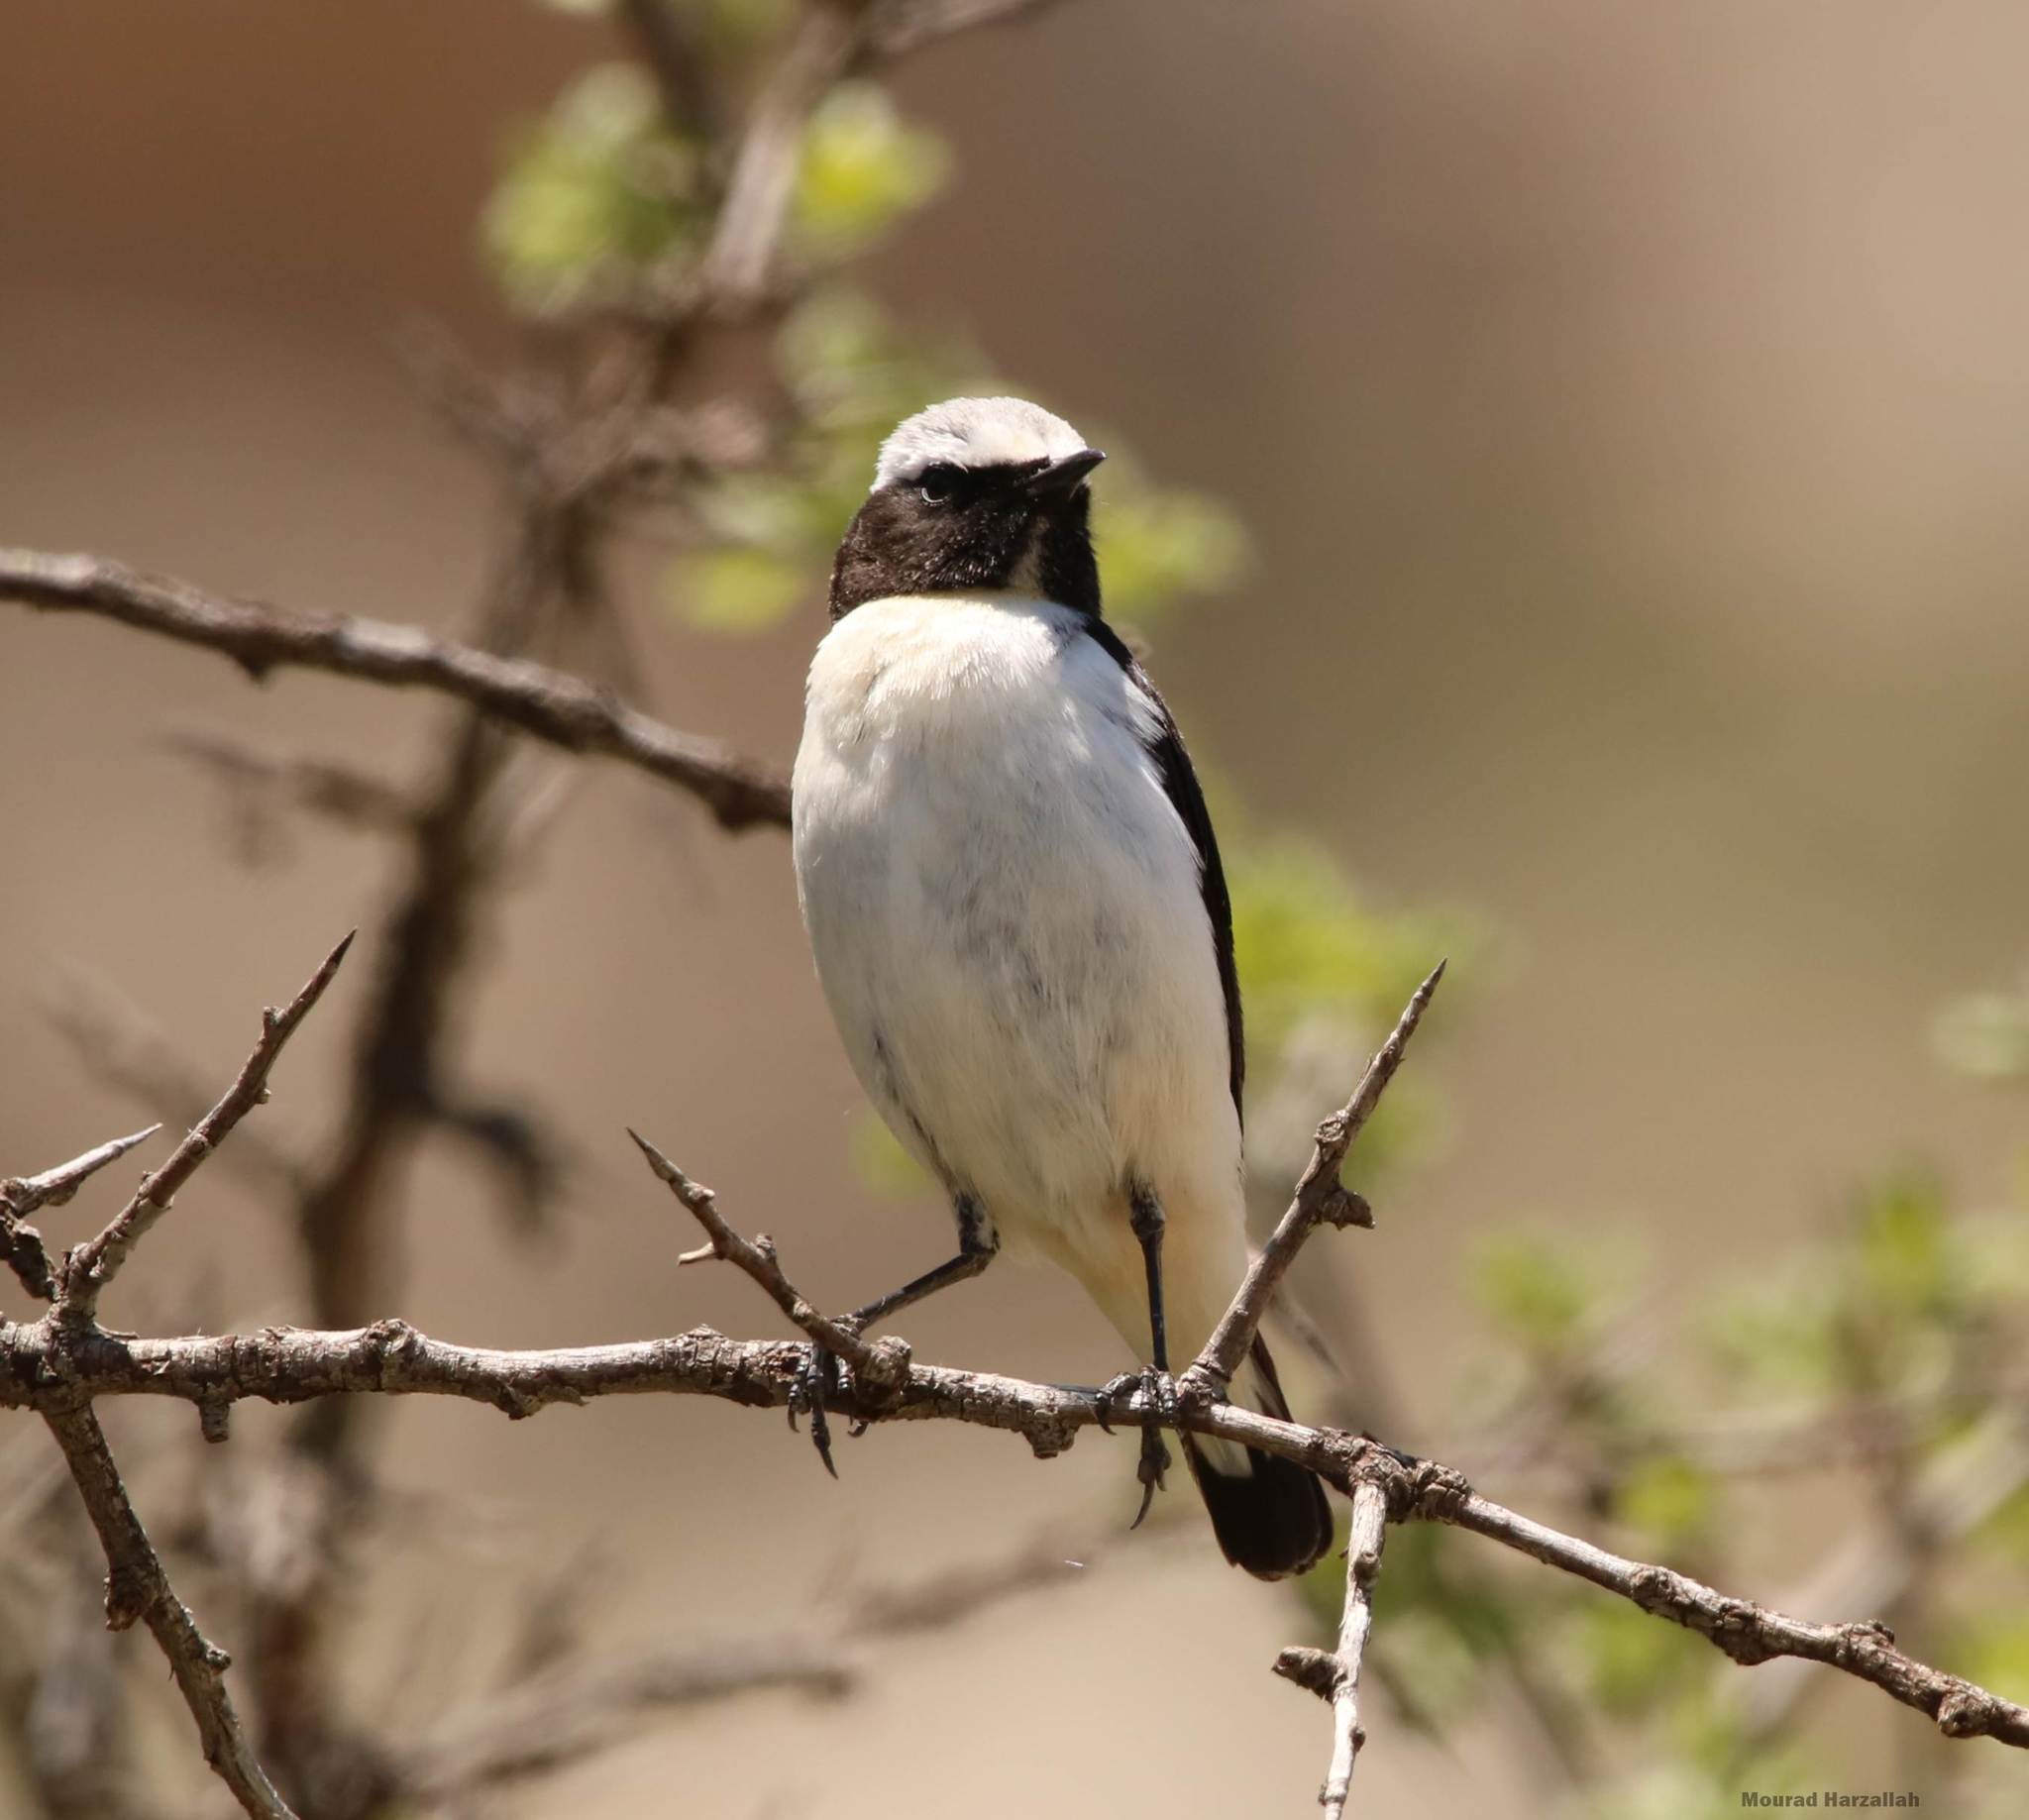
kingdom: Animalia
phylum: Chordata
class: Aves
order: Passeriformes
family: Muscicapidae
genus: Oenanthe
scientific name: Oenanthe oenanthe
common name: Northern wheatear
